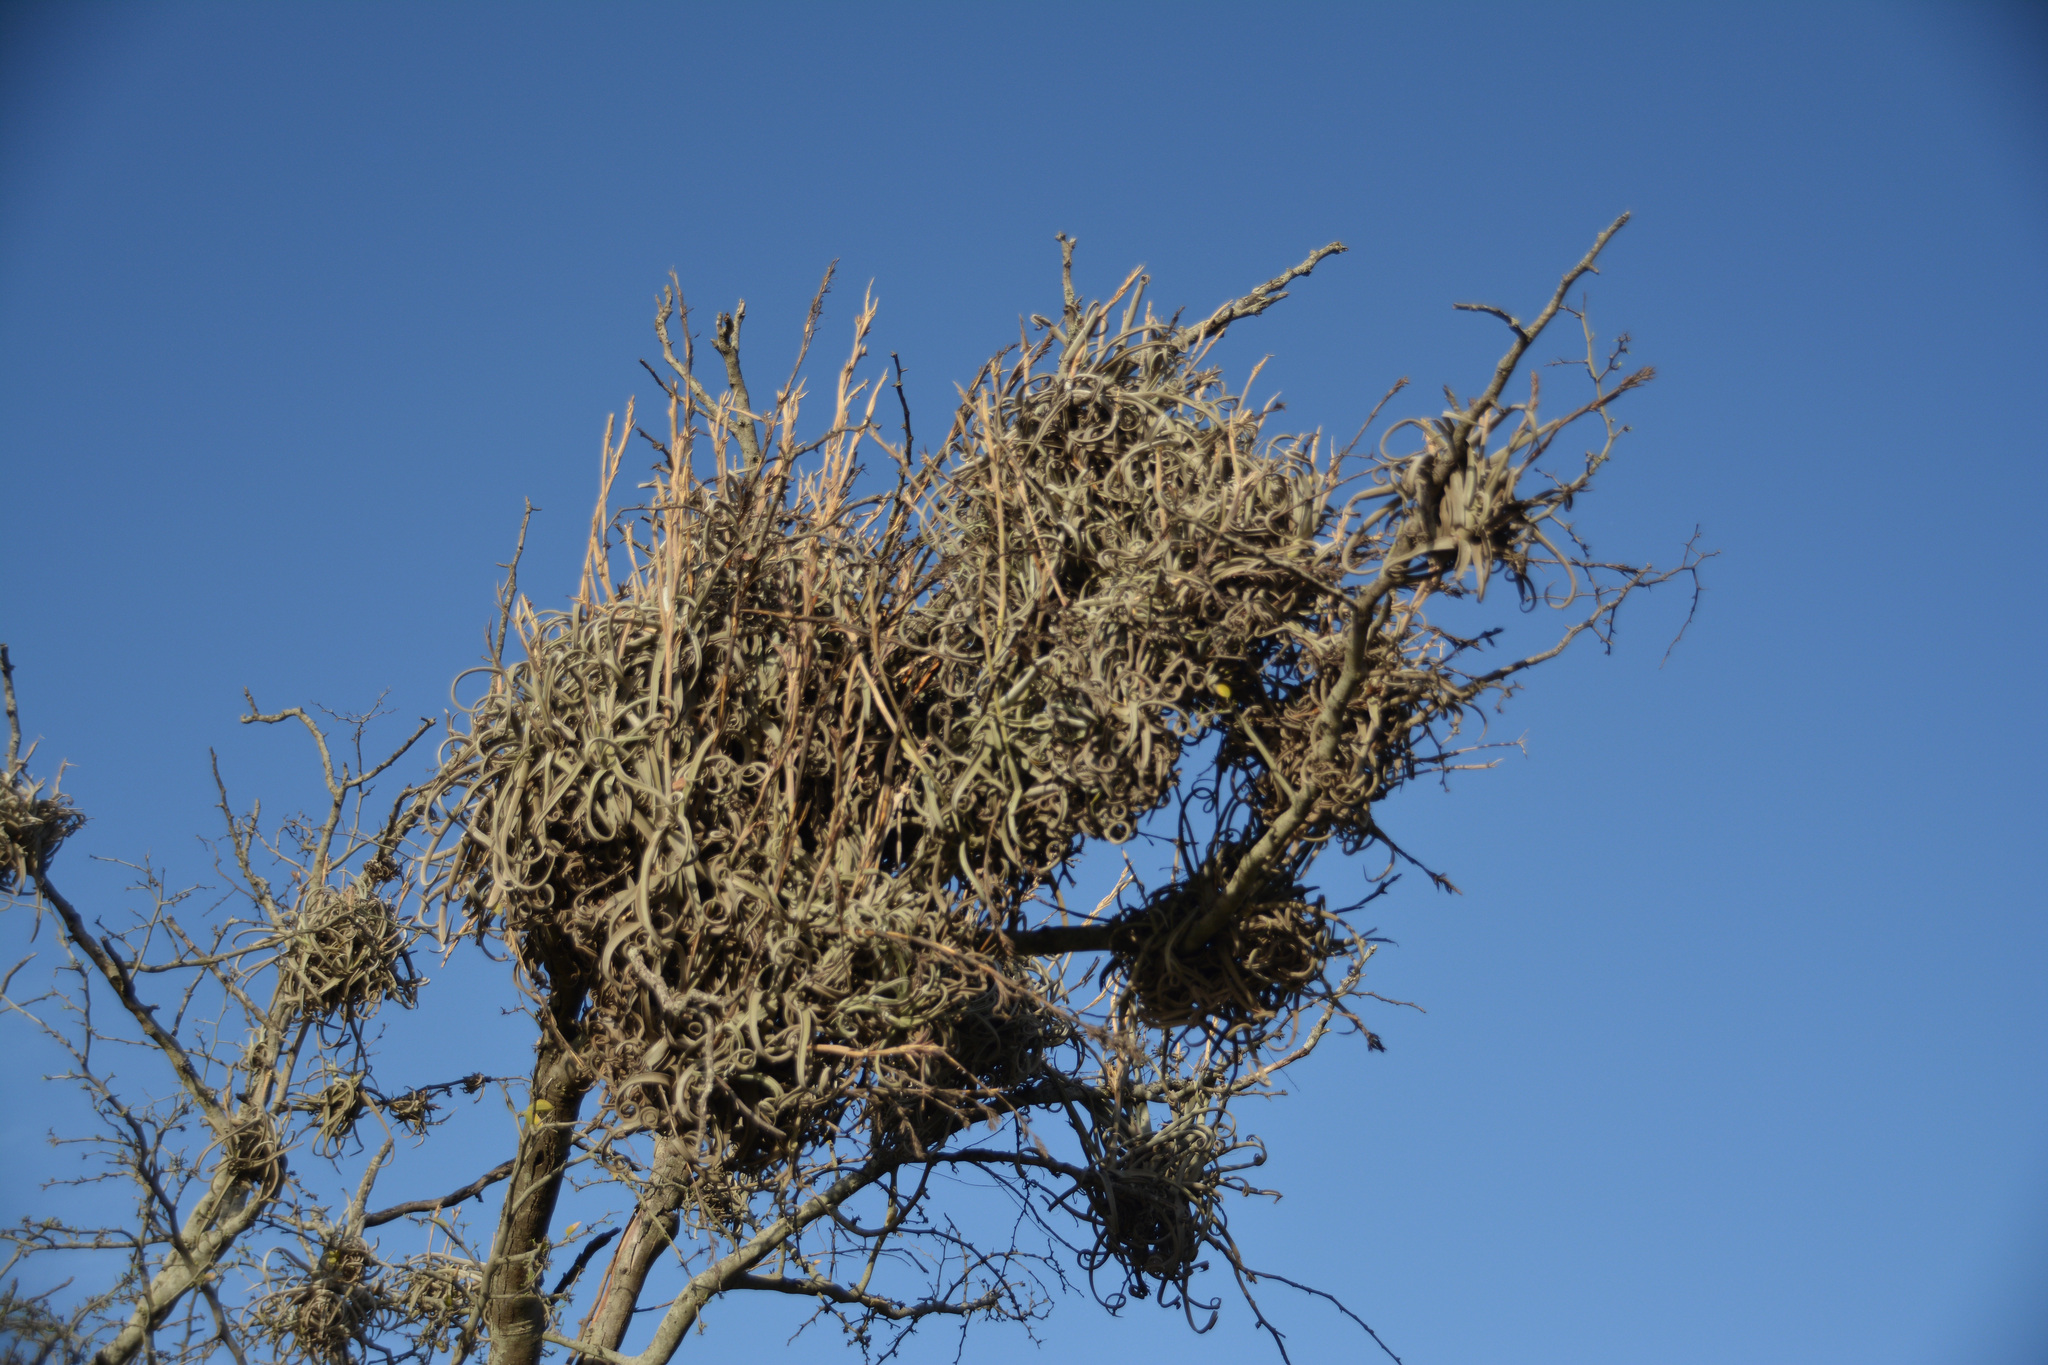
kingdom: Plantae
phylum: Tracheophyta
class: Liliopsida
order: Poales
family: Bromeliaceae
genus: Tillandsia
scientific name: Tillandsia duratii
